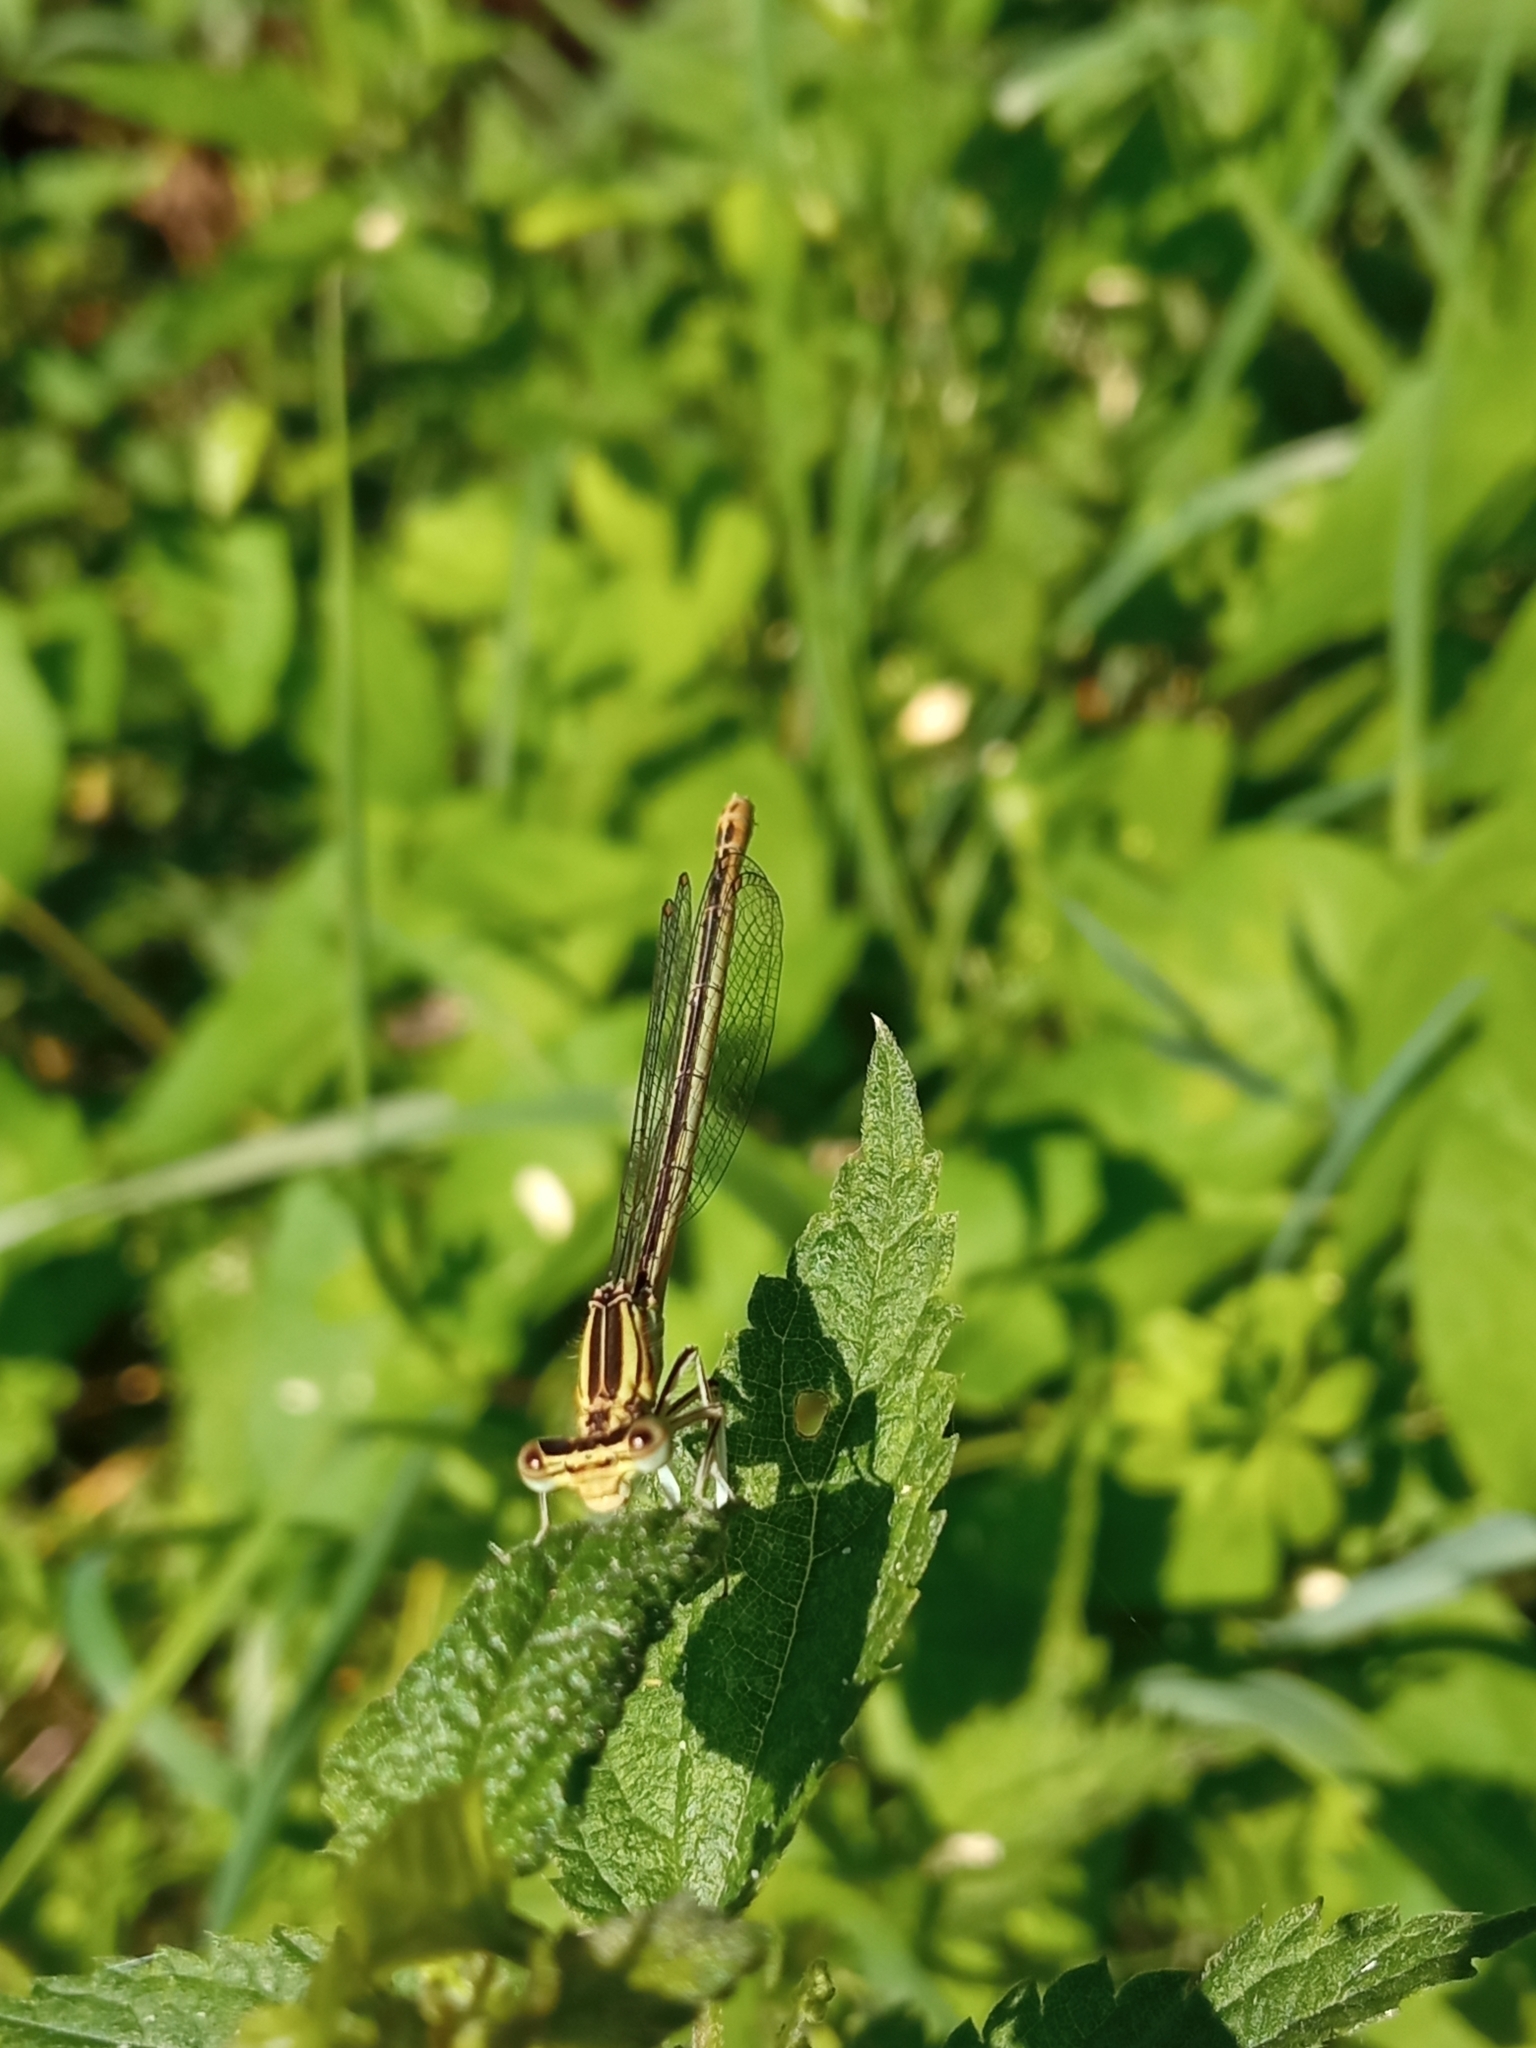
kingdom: Animalia
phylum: Arthropoda
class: Insecta
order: Odonata
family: Platycnemididae
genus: Platycnemis
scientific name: Platycnemis pennipes
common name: White-legged damselfly
